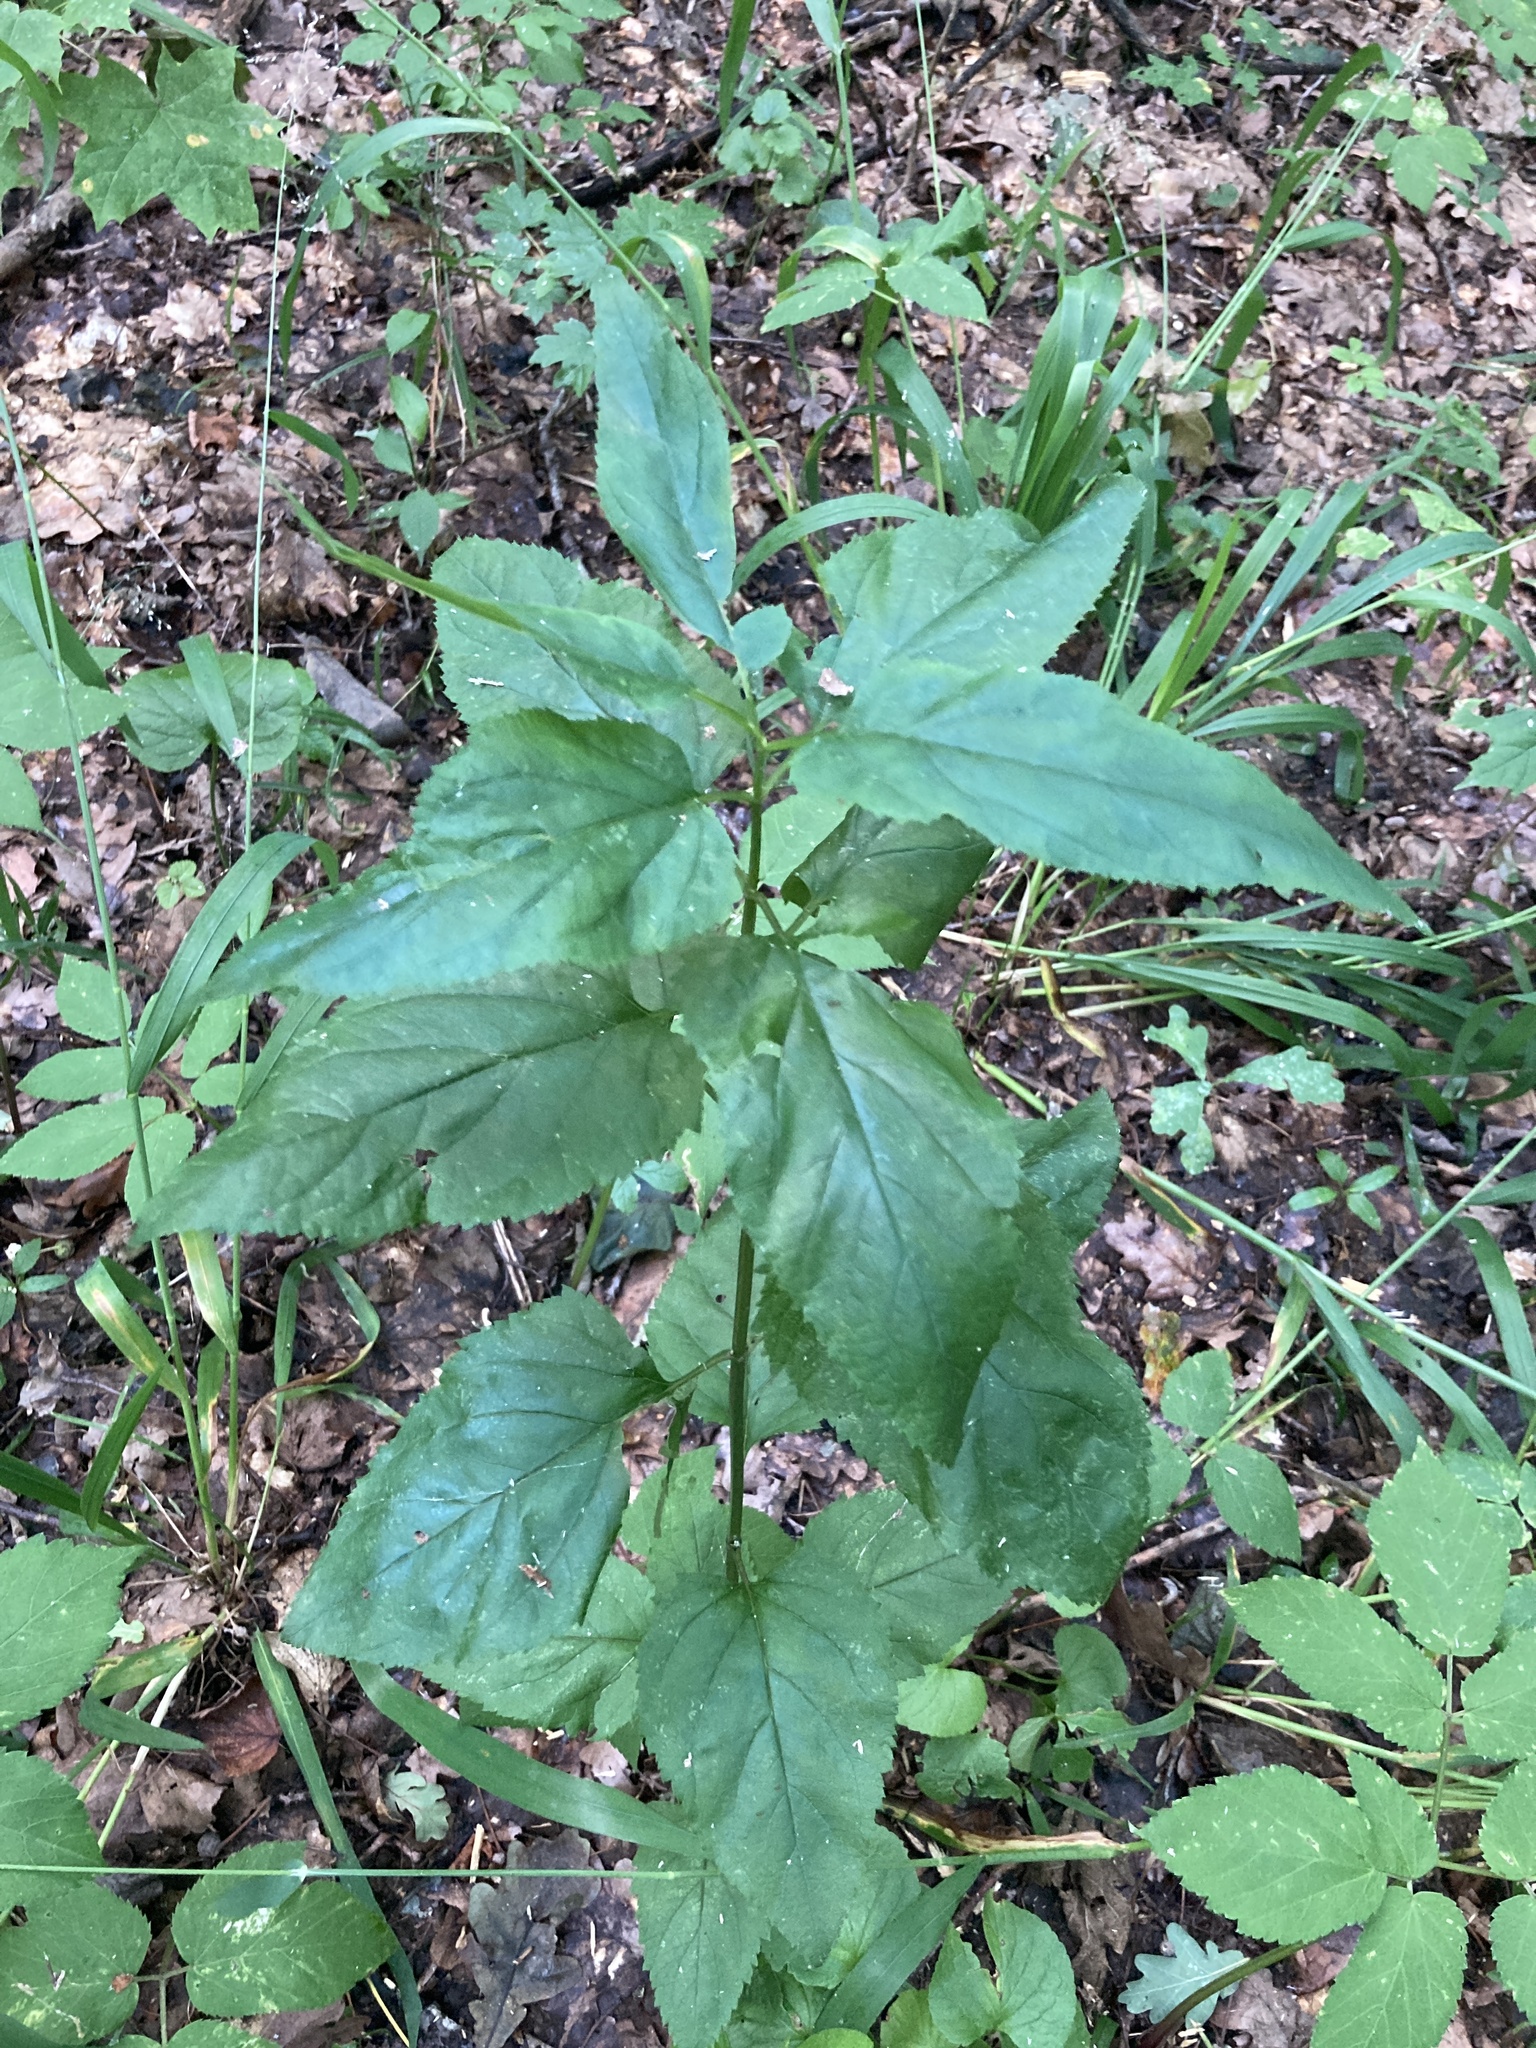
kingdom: Plantae
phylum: Tracheophyta
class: Magnoliopsida
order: Lamiales
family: Scrophulariaceae
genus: Scrophularia
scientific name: Scrophularia nodosa
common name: Common figwort
